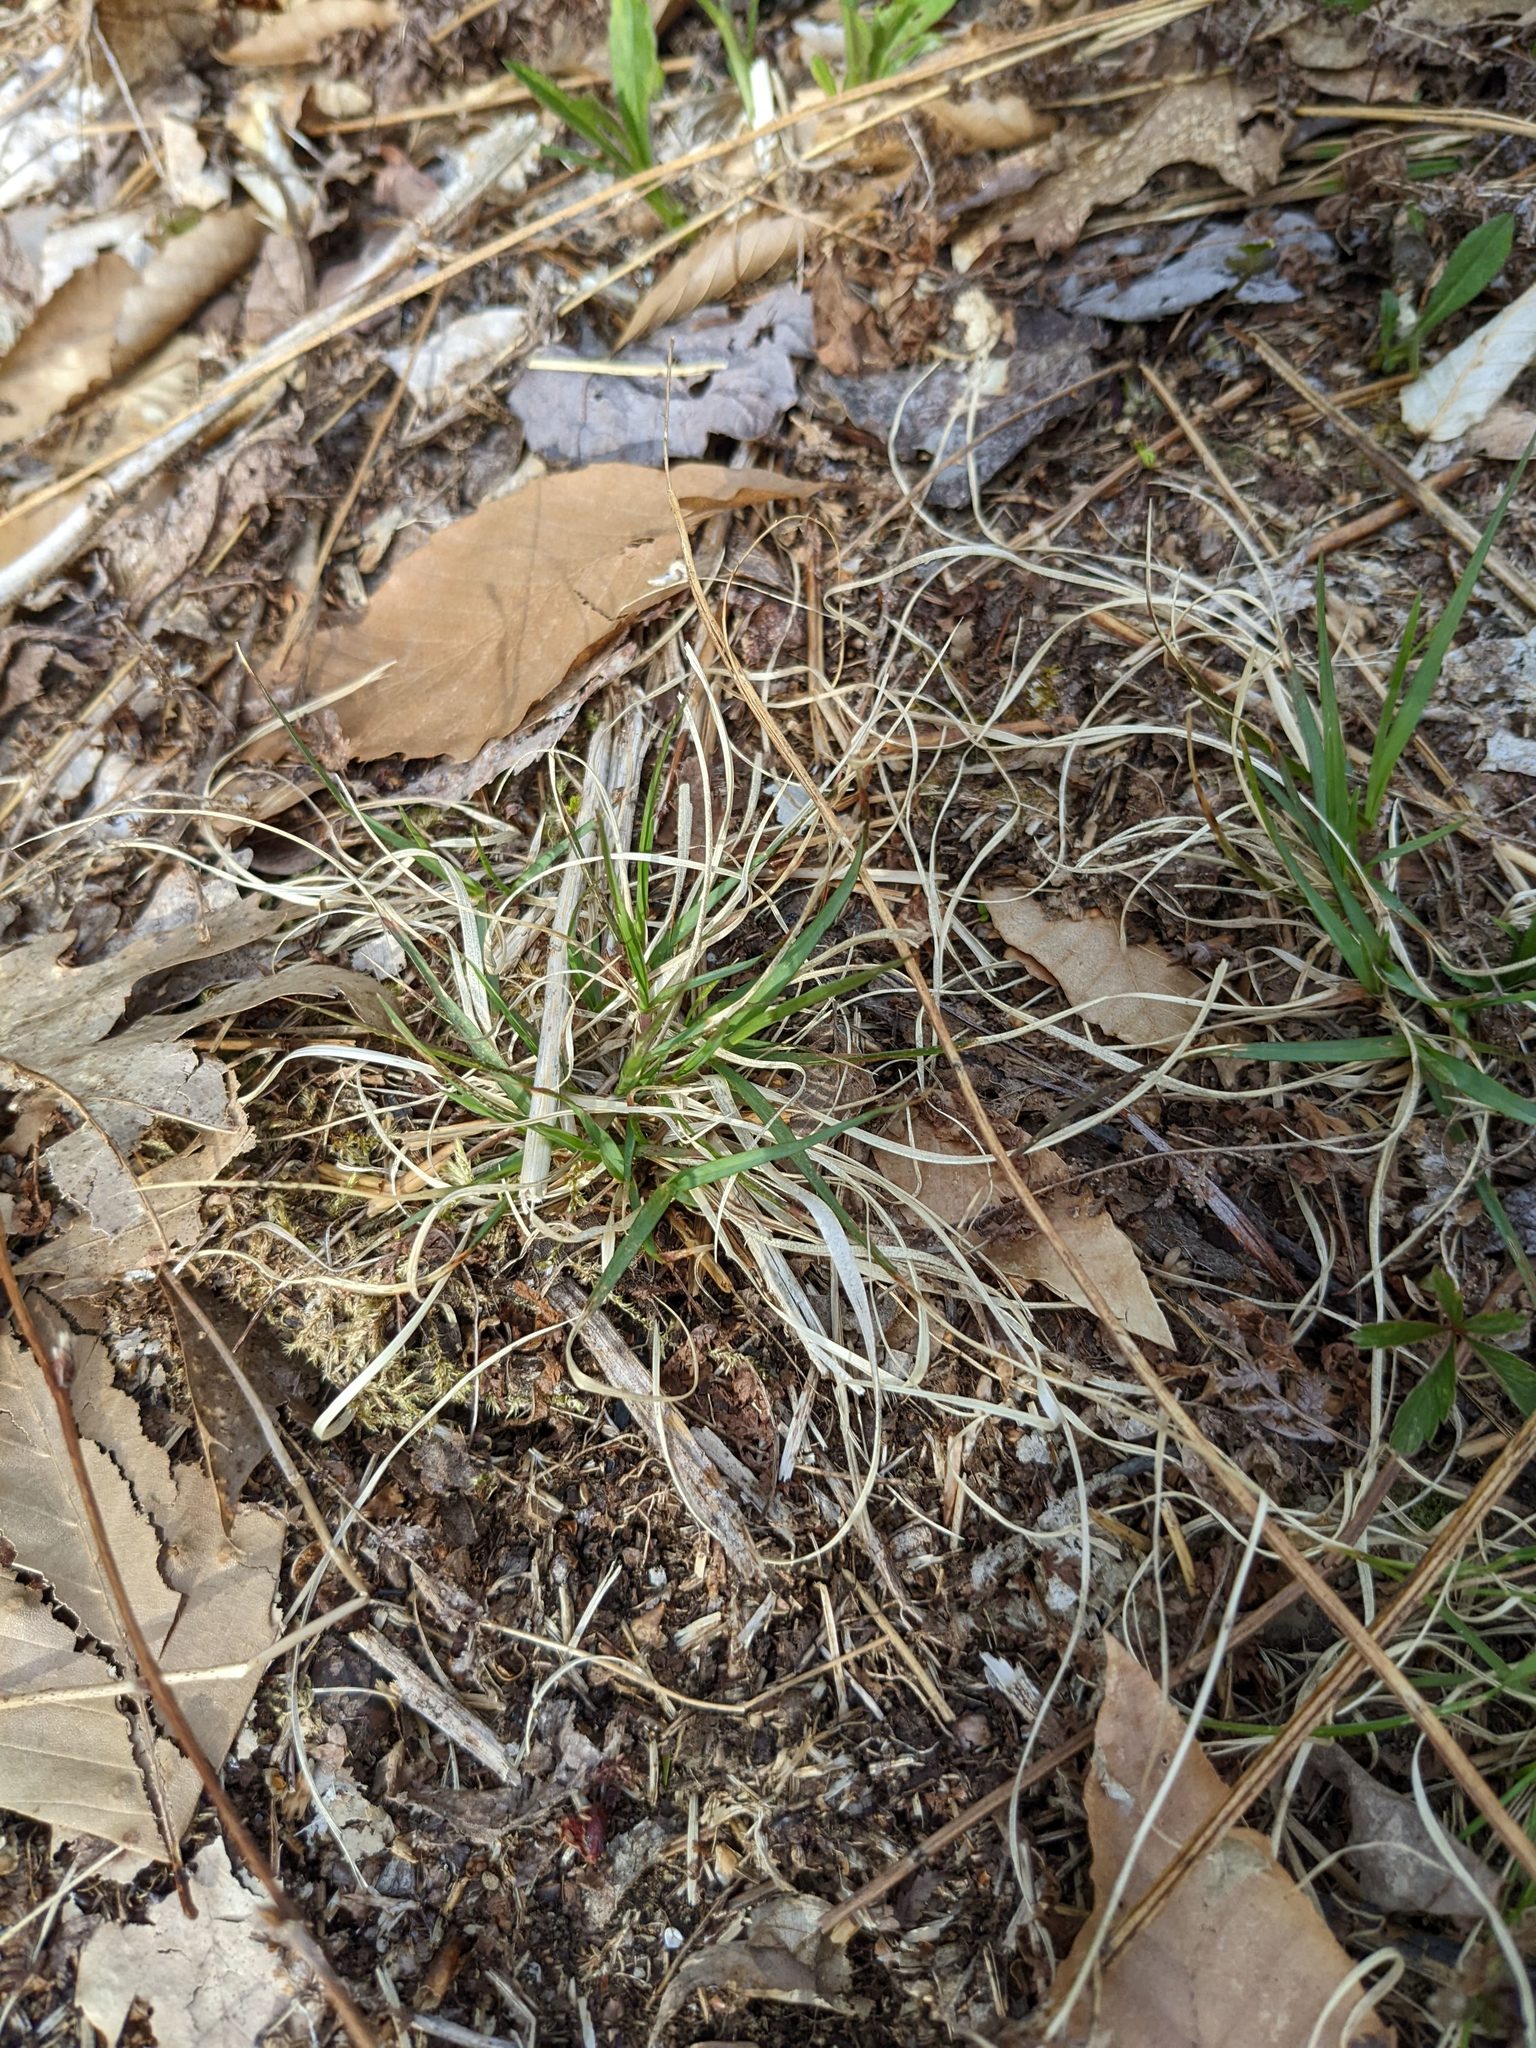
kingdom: Plantae
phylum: Tracheophyta
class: Liliopsida
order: Poales
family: Poaceae
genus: Danthonia
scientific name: Danthonia spicata
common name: Common wild oatgrass
